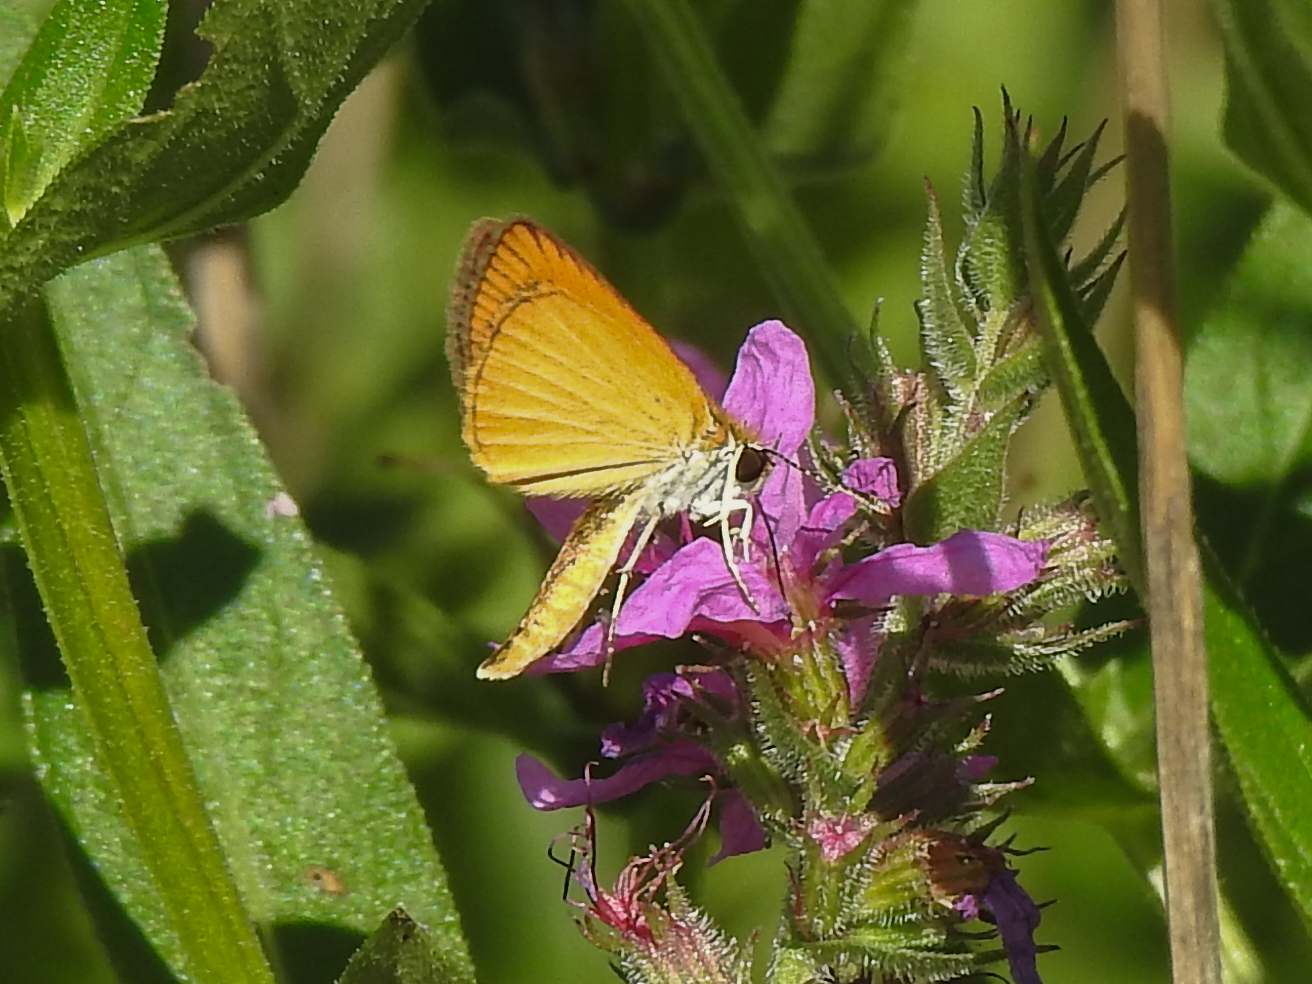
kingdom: Animalia
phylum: Arthropoda
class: Insecta
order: Lepidoptera
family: Hesperiidae
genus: Ancyloxypha
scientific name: Ancyloxypha numitor
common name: Least skipper
